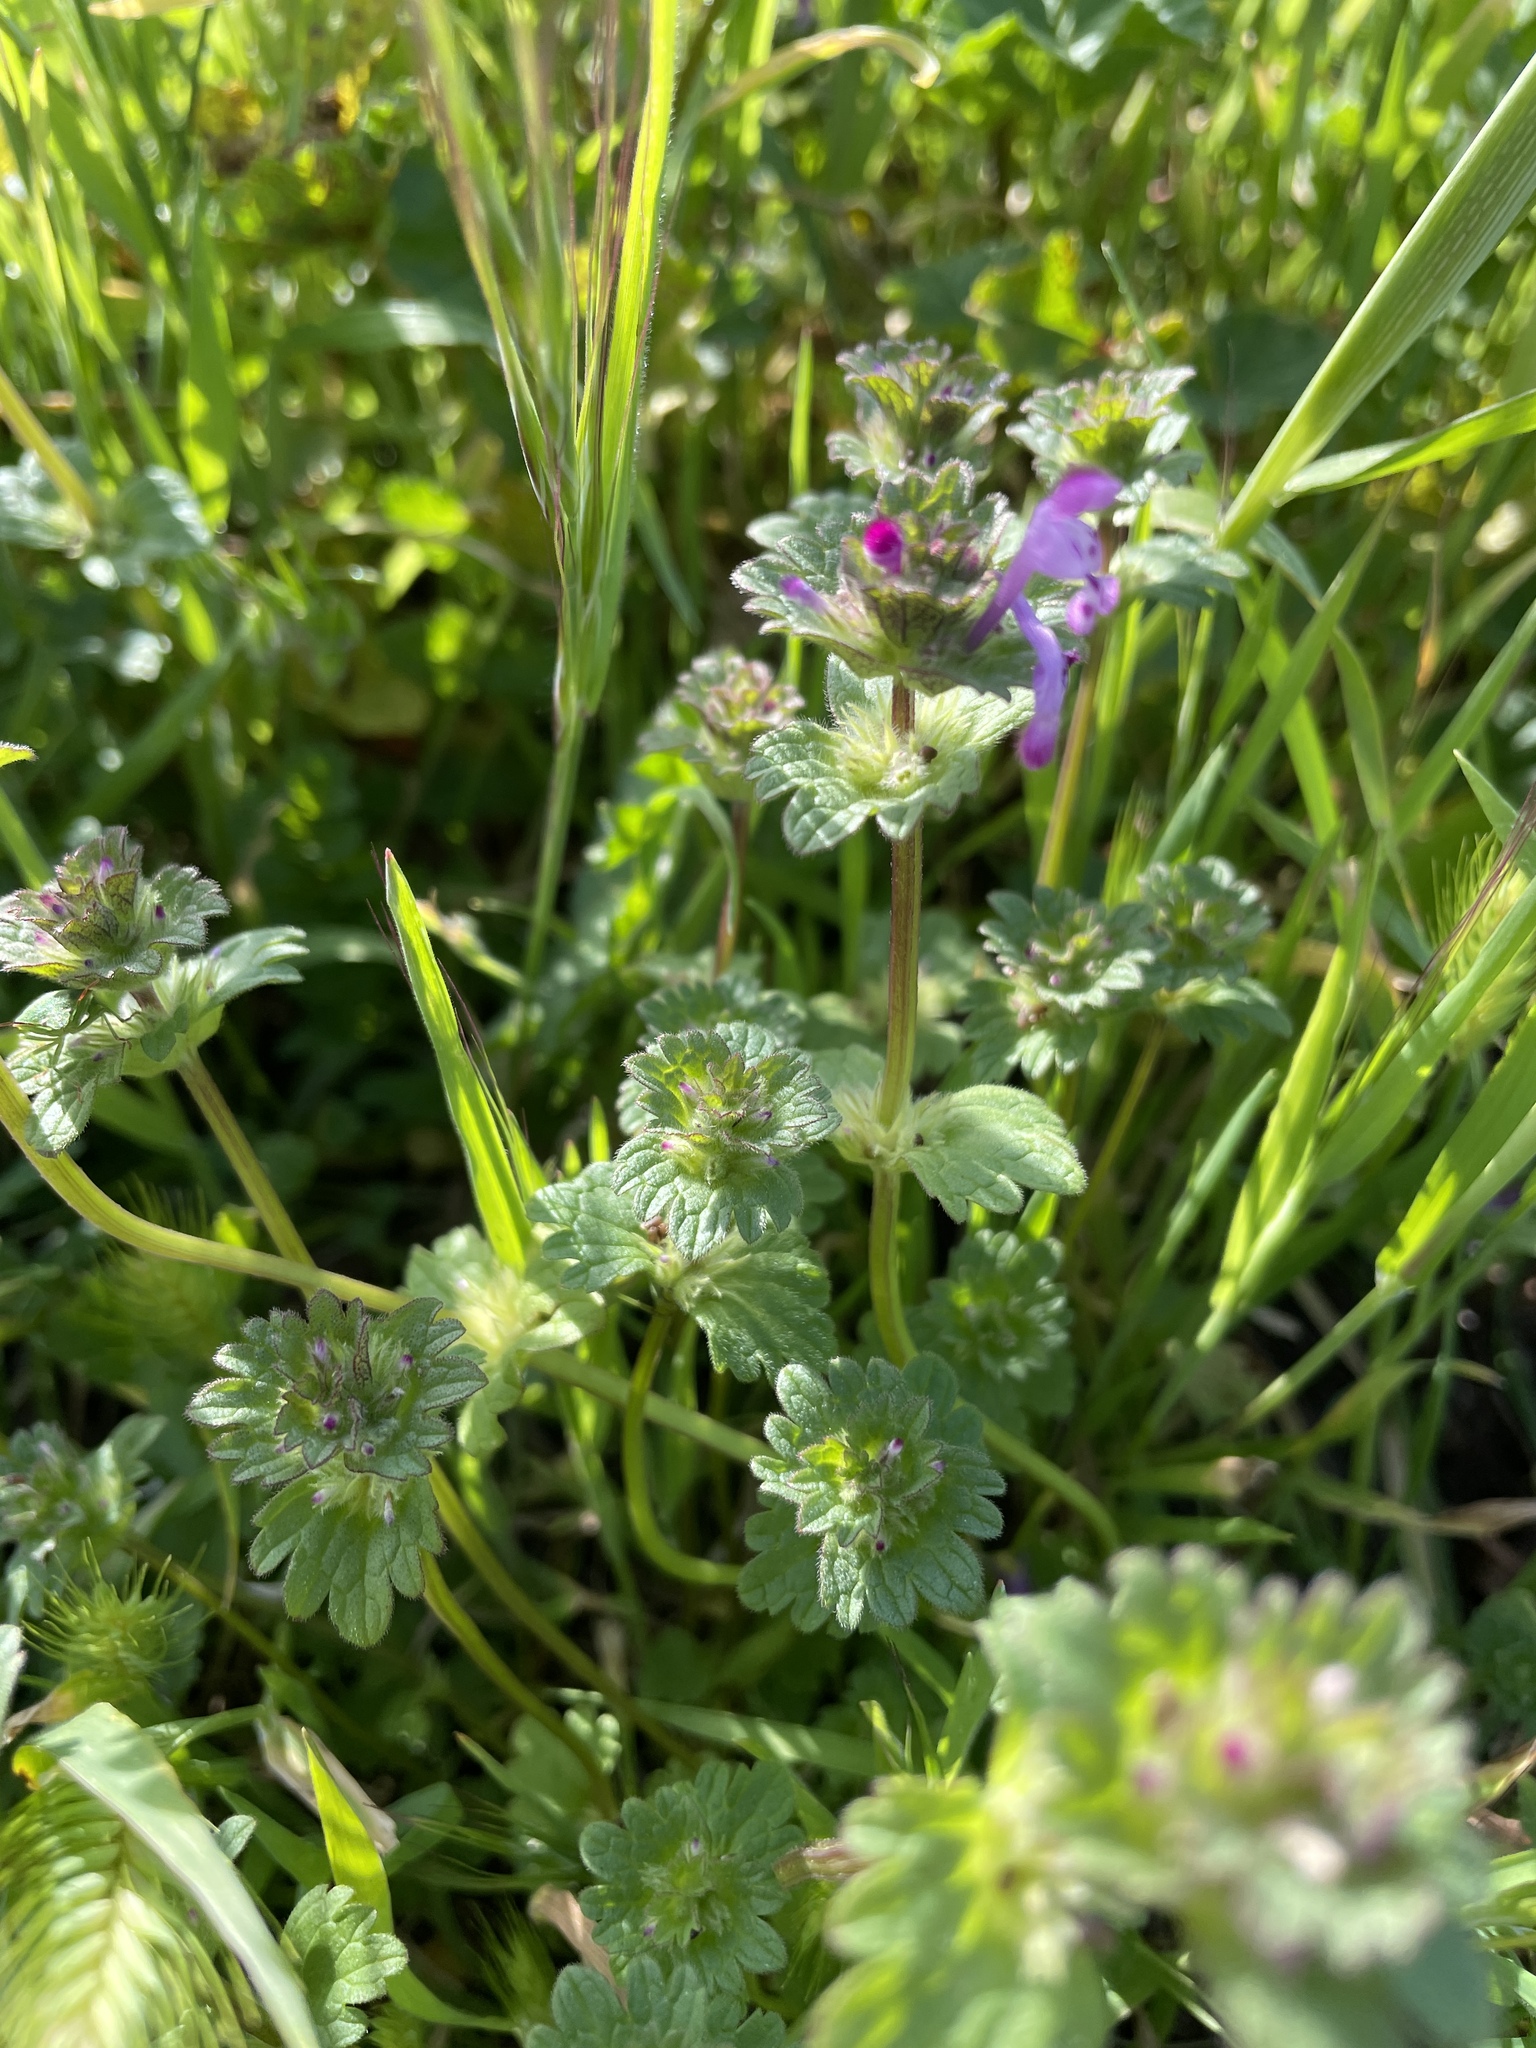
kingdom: Plantae
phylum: Tracheophyta
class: Magnoliopsida
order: Lamiales
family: Lamiaceae
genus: Lamium
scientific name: Lamium amplexicaule
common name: Henbit dead-nettle
